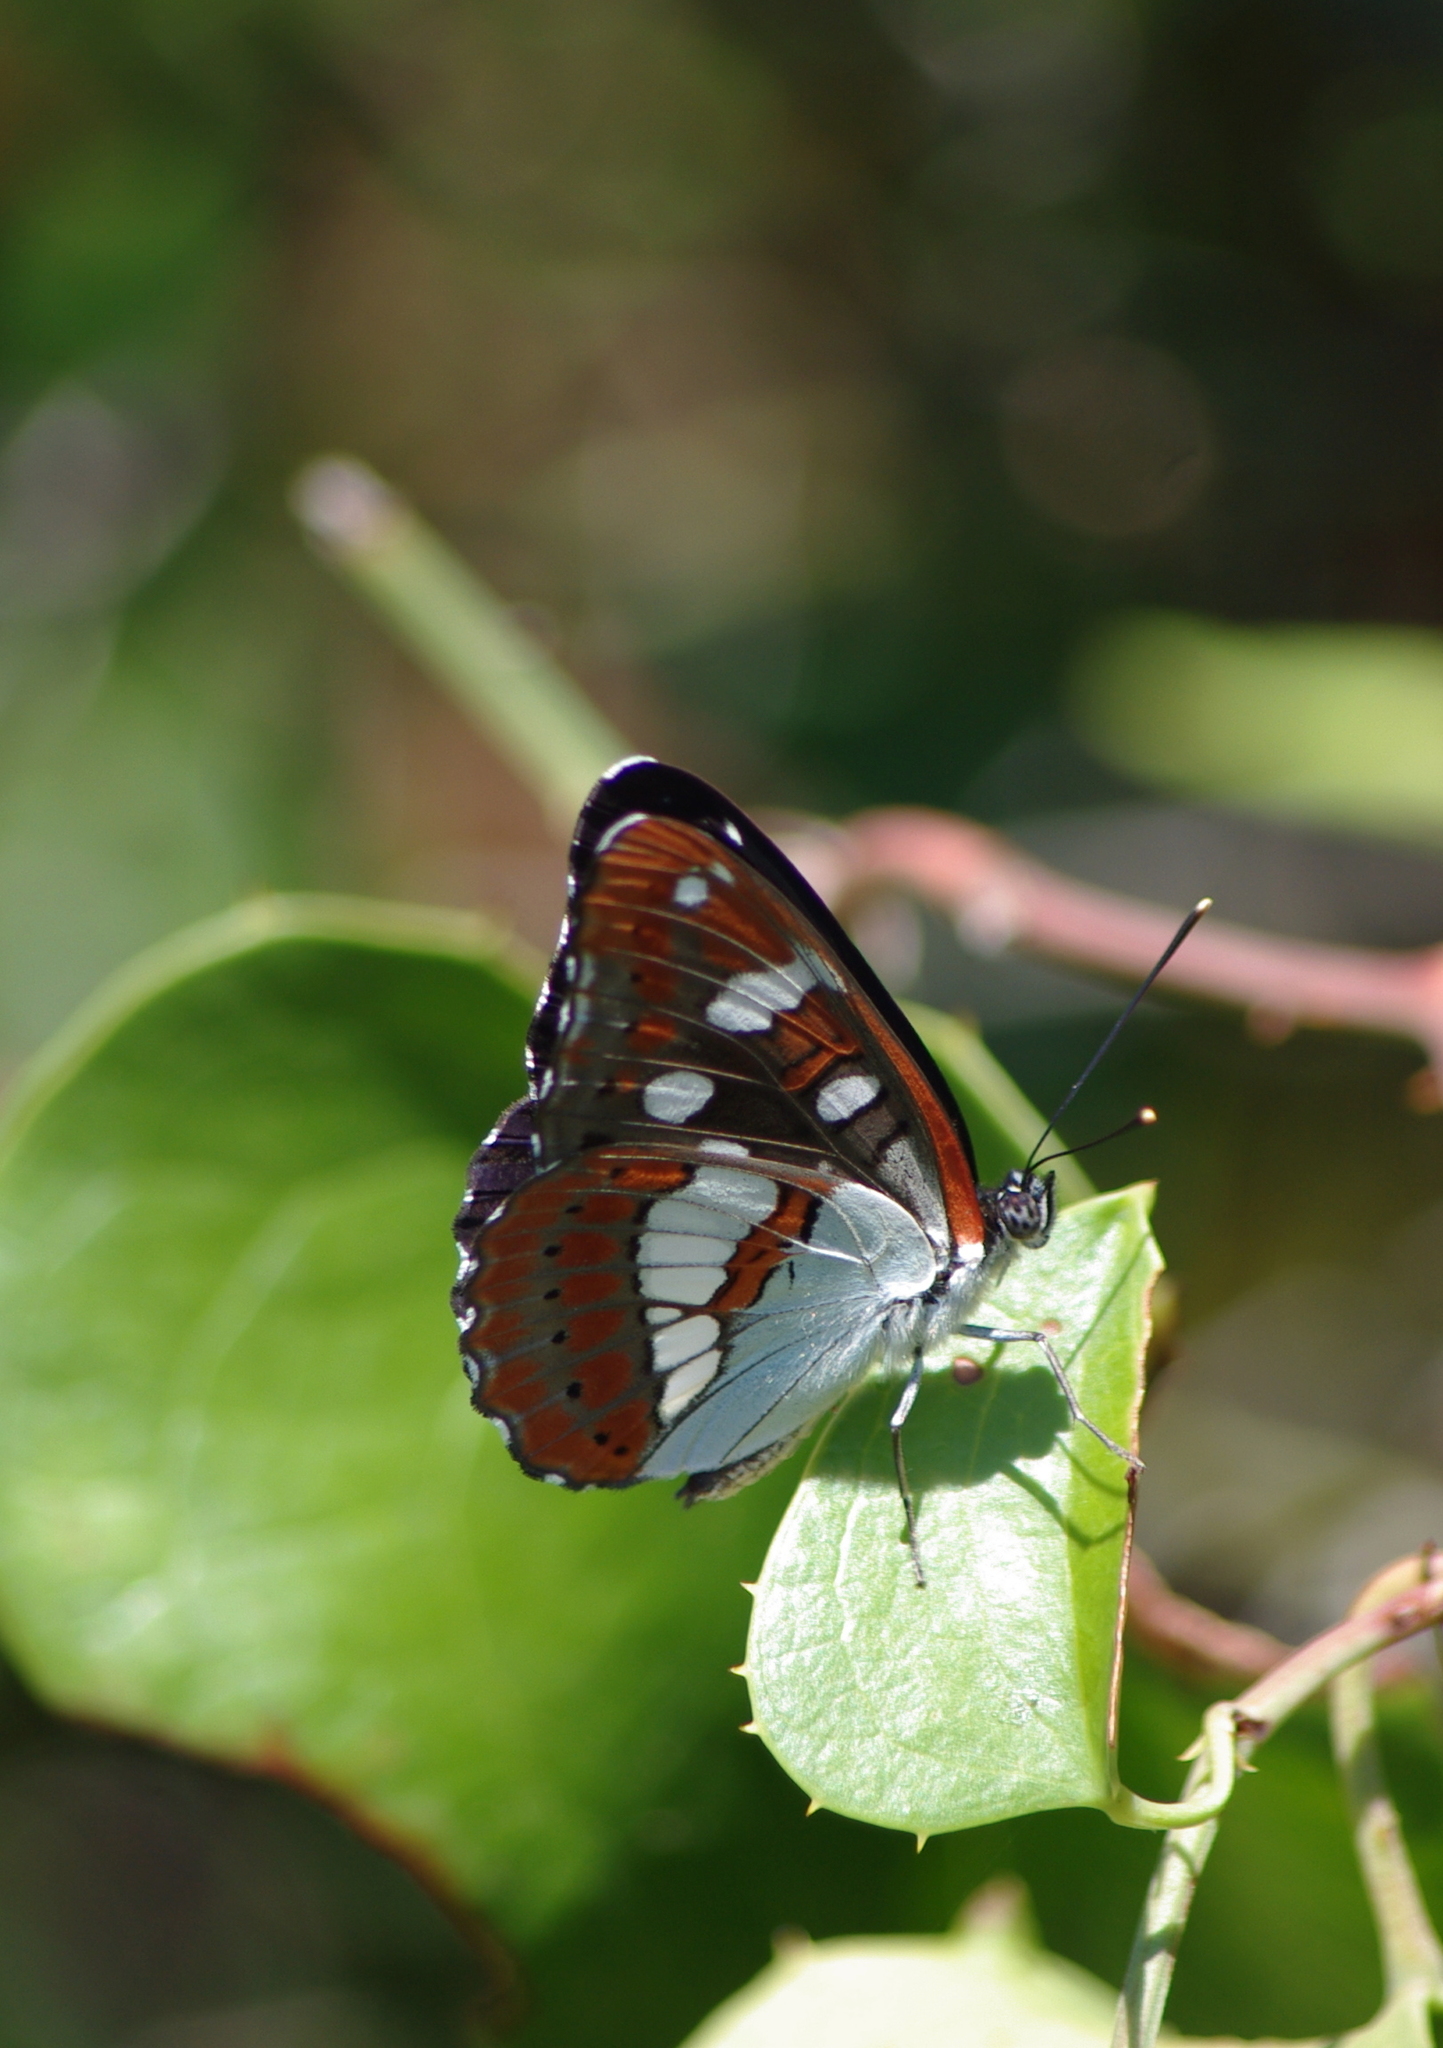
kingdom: Animalia
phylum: Arthropoda
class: Insecta
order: Lepidoptera
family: Nymphalidae
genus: Limenitis
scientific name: Limenitis reducta
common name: Southern white admiral
